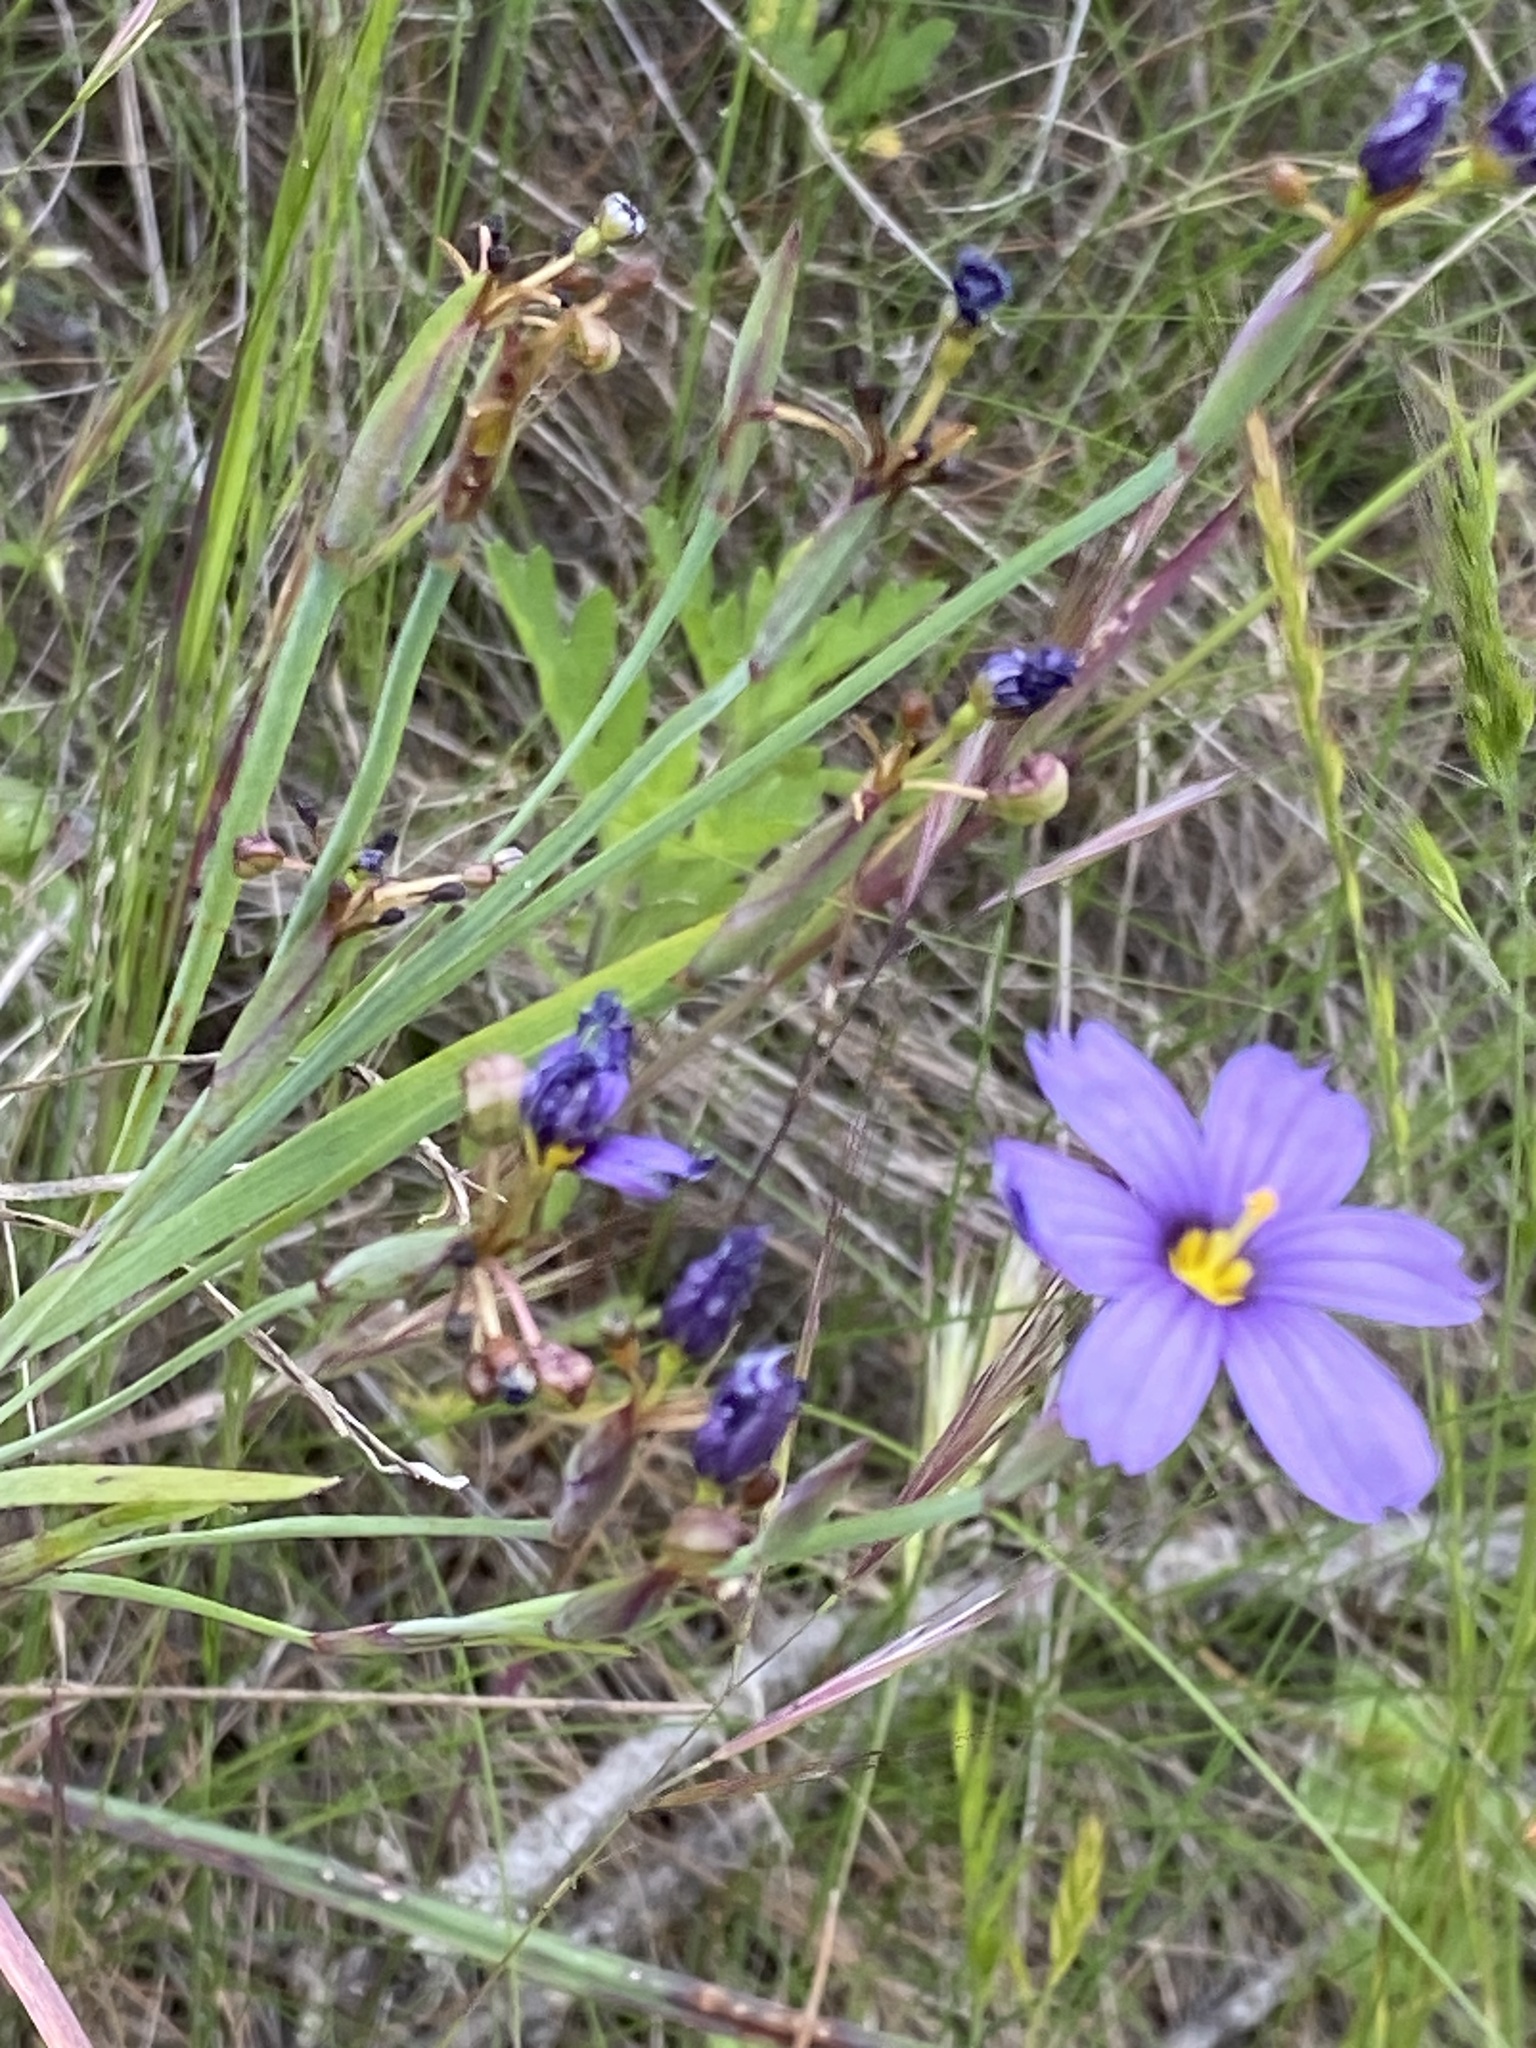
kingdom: Plantae
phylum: Tracheophyta
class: Liliopsida
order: Asparagales
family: Iridaceae
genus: Sisyrinchium
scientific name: Sisyrinchium bellum
